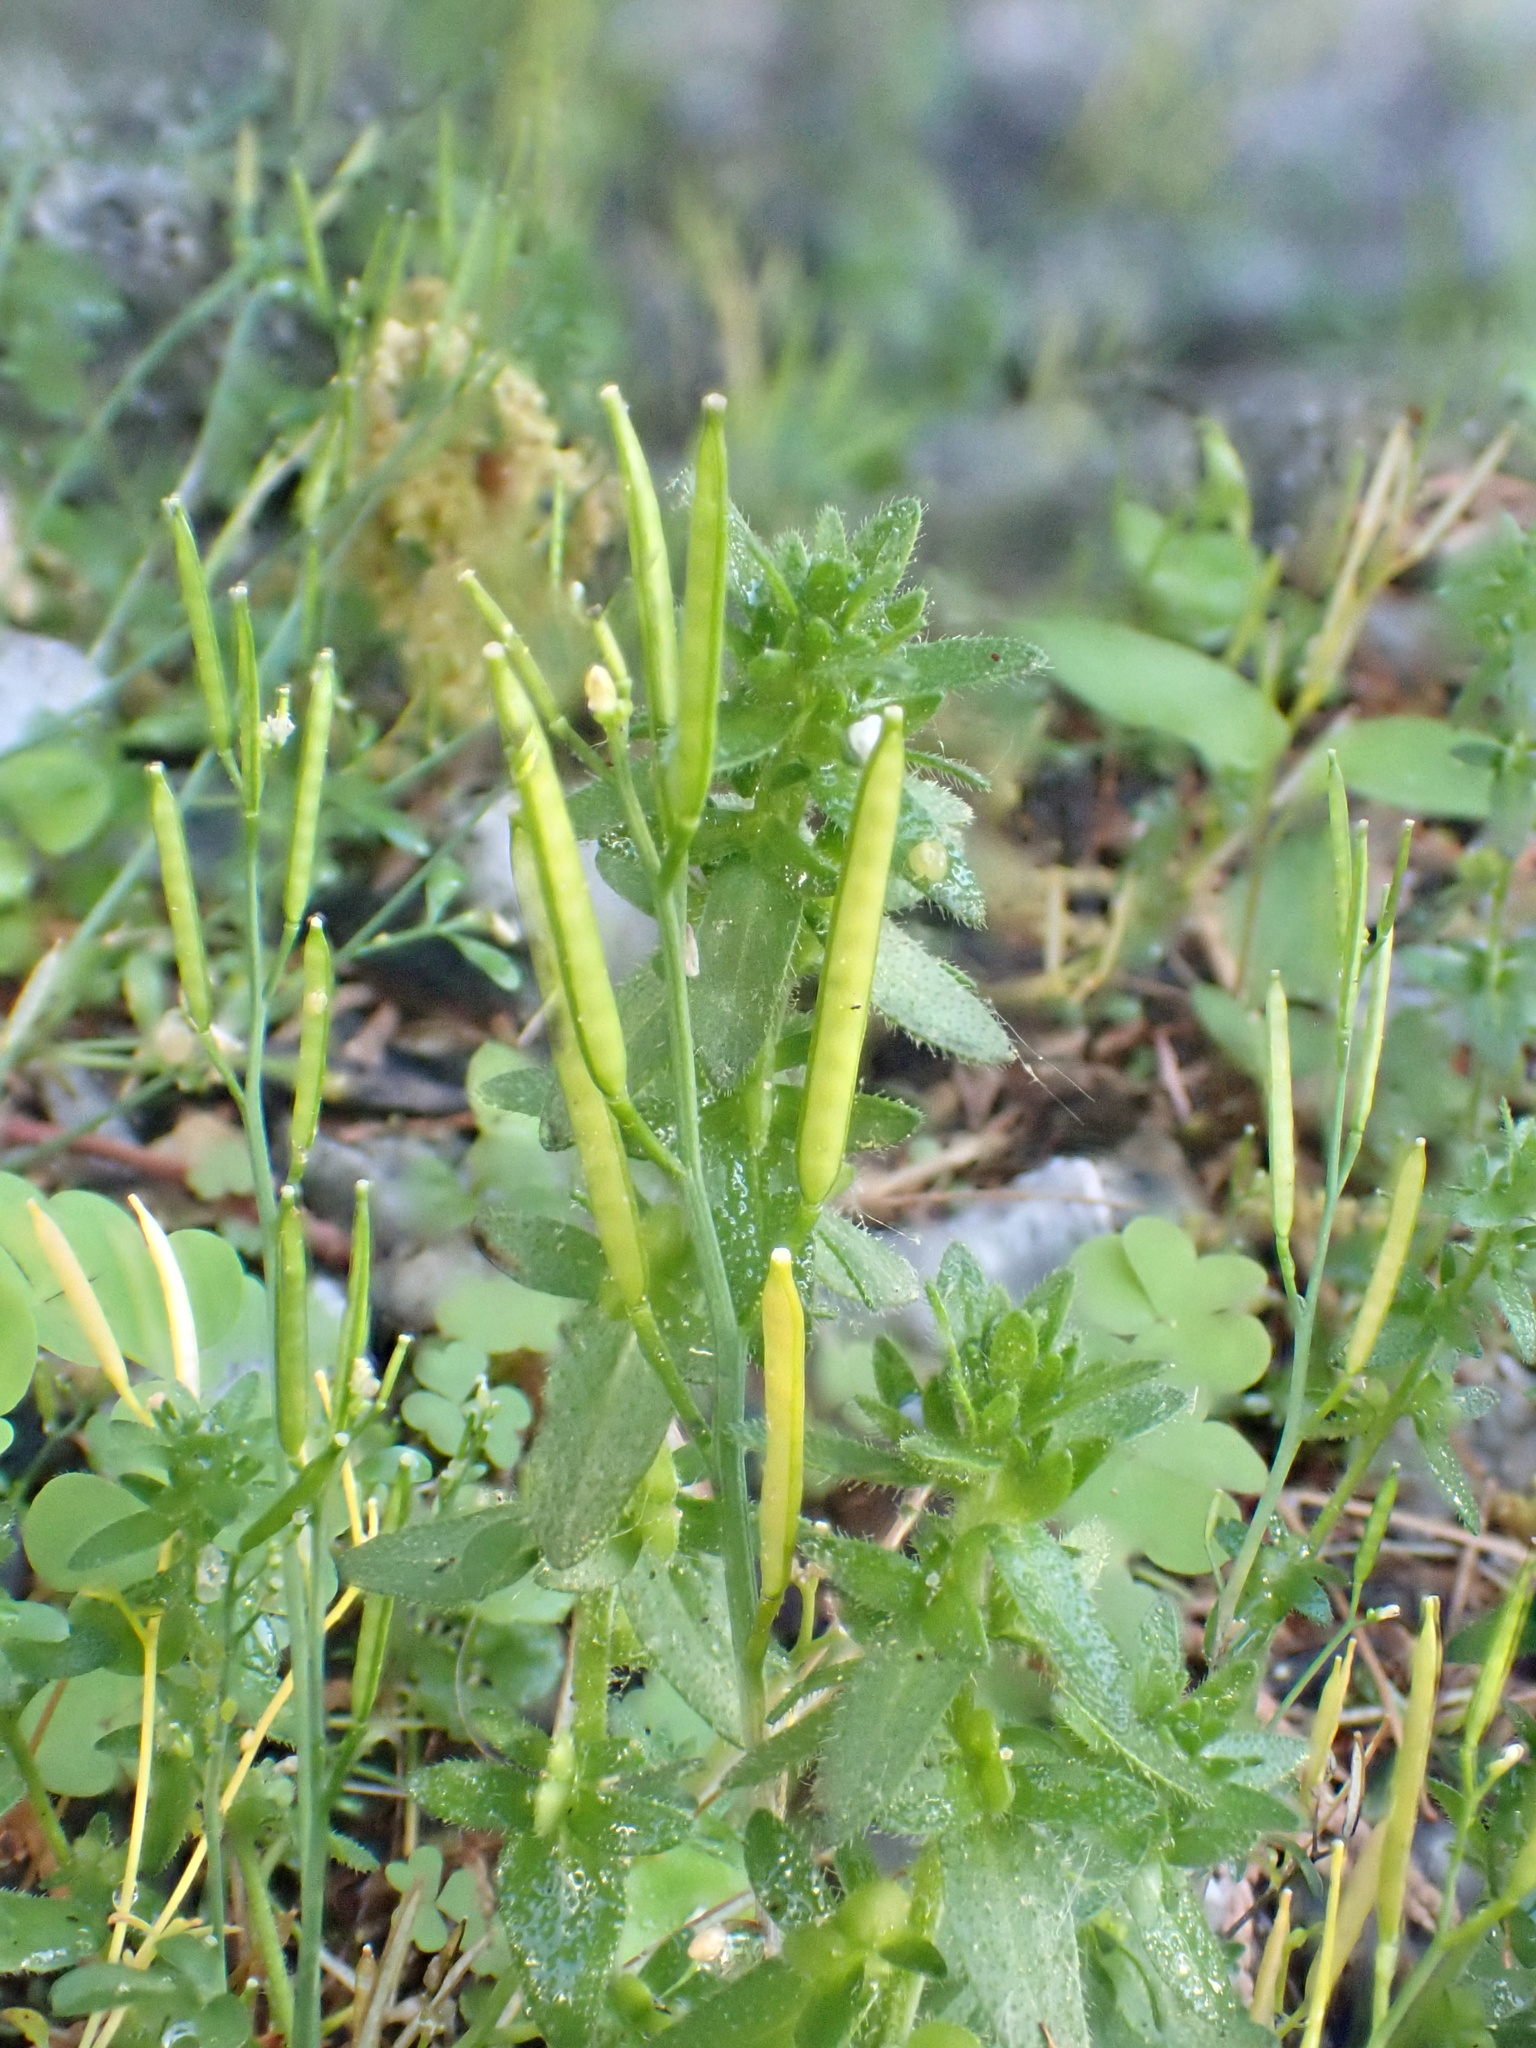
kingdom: Plantae
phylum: Tracheophyta
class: Magnoliopsida
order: Brassicales
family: Brassicaceae
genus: Cardamine
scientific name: Cardamine hirsuta
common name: Hairy bittercress
